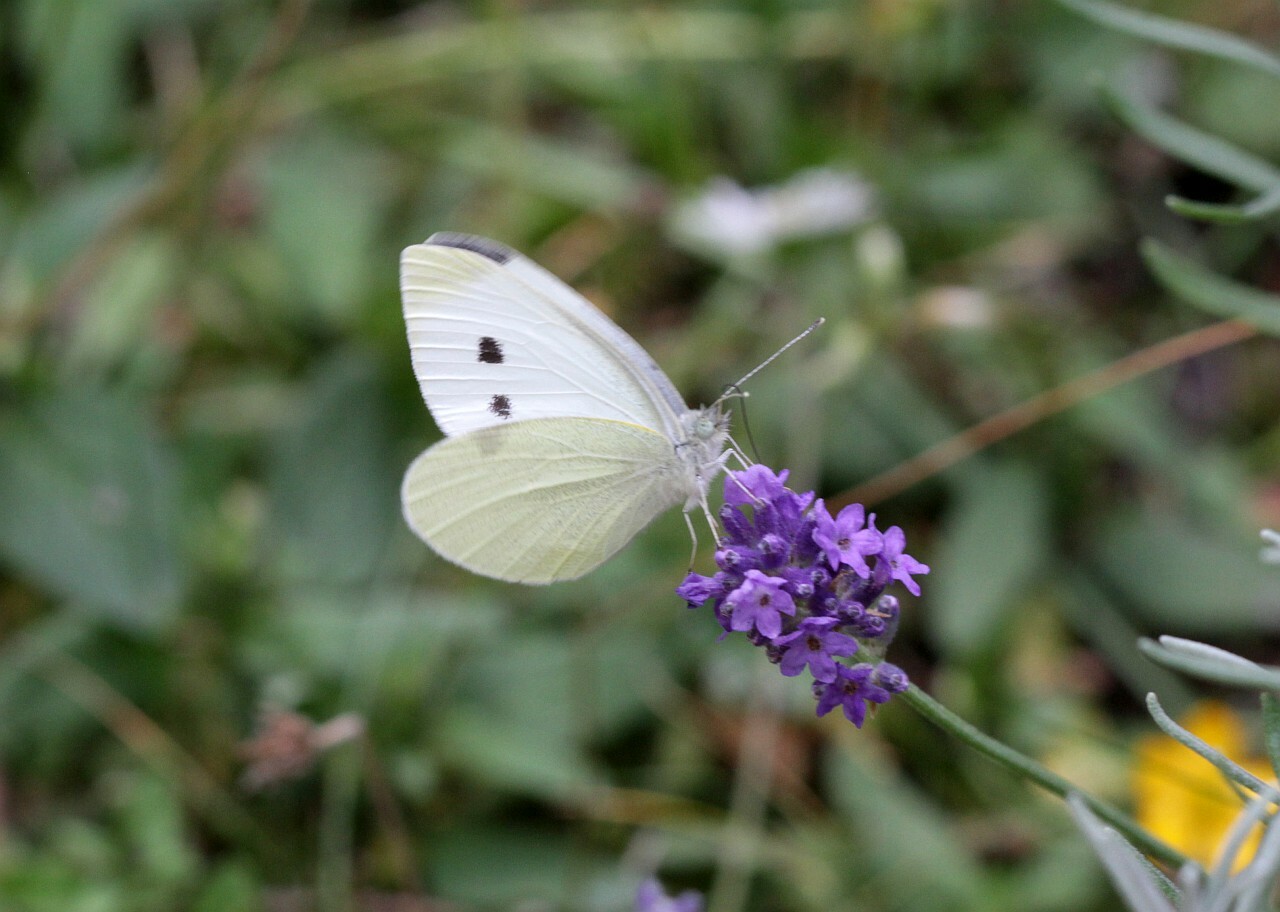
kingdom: Animalia
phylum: Arthropoda
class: Insecta
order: Lepidoptera
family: Pieridae
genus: Pieris
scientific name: Pieris rapae
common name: Small white
